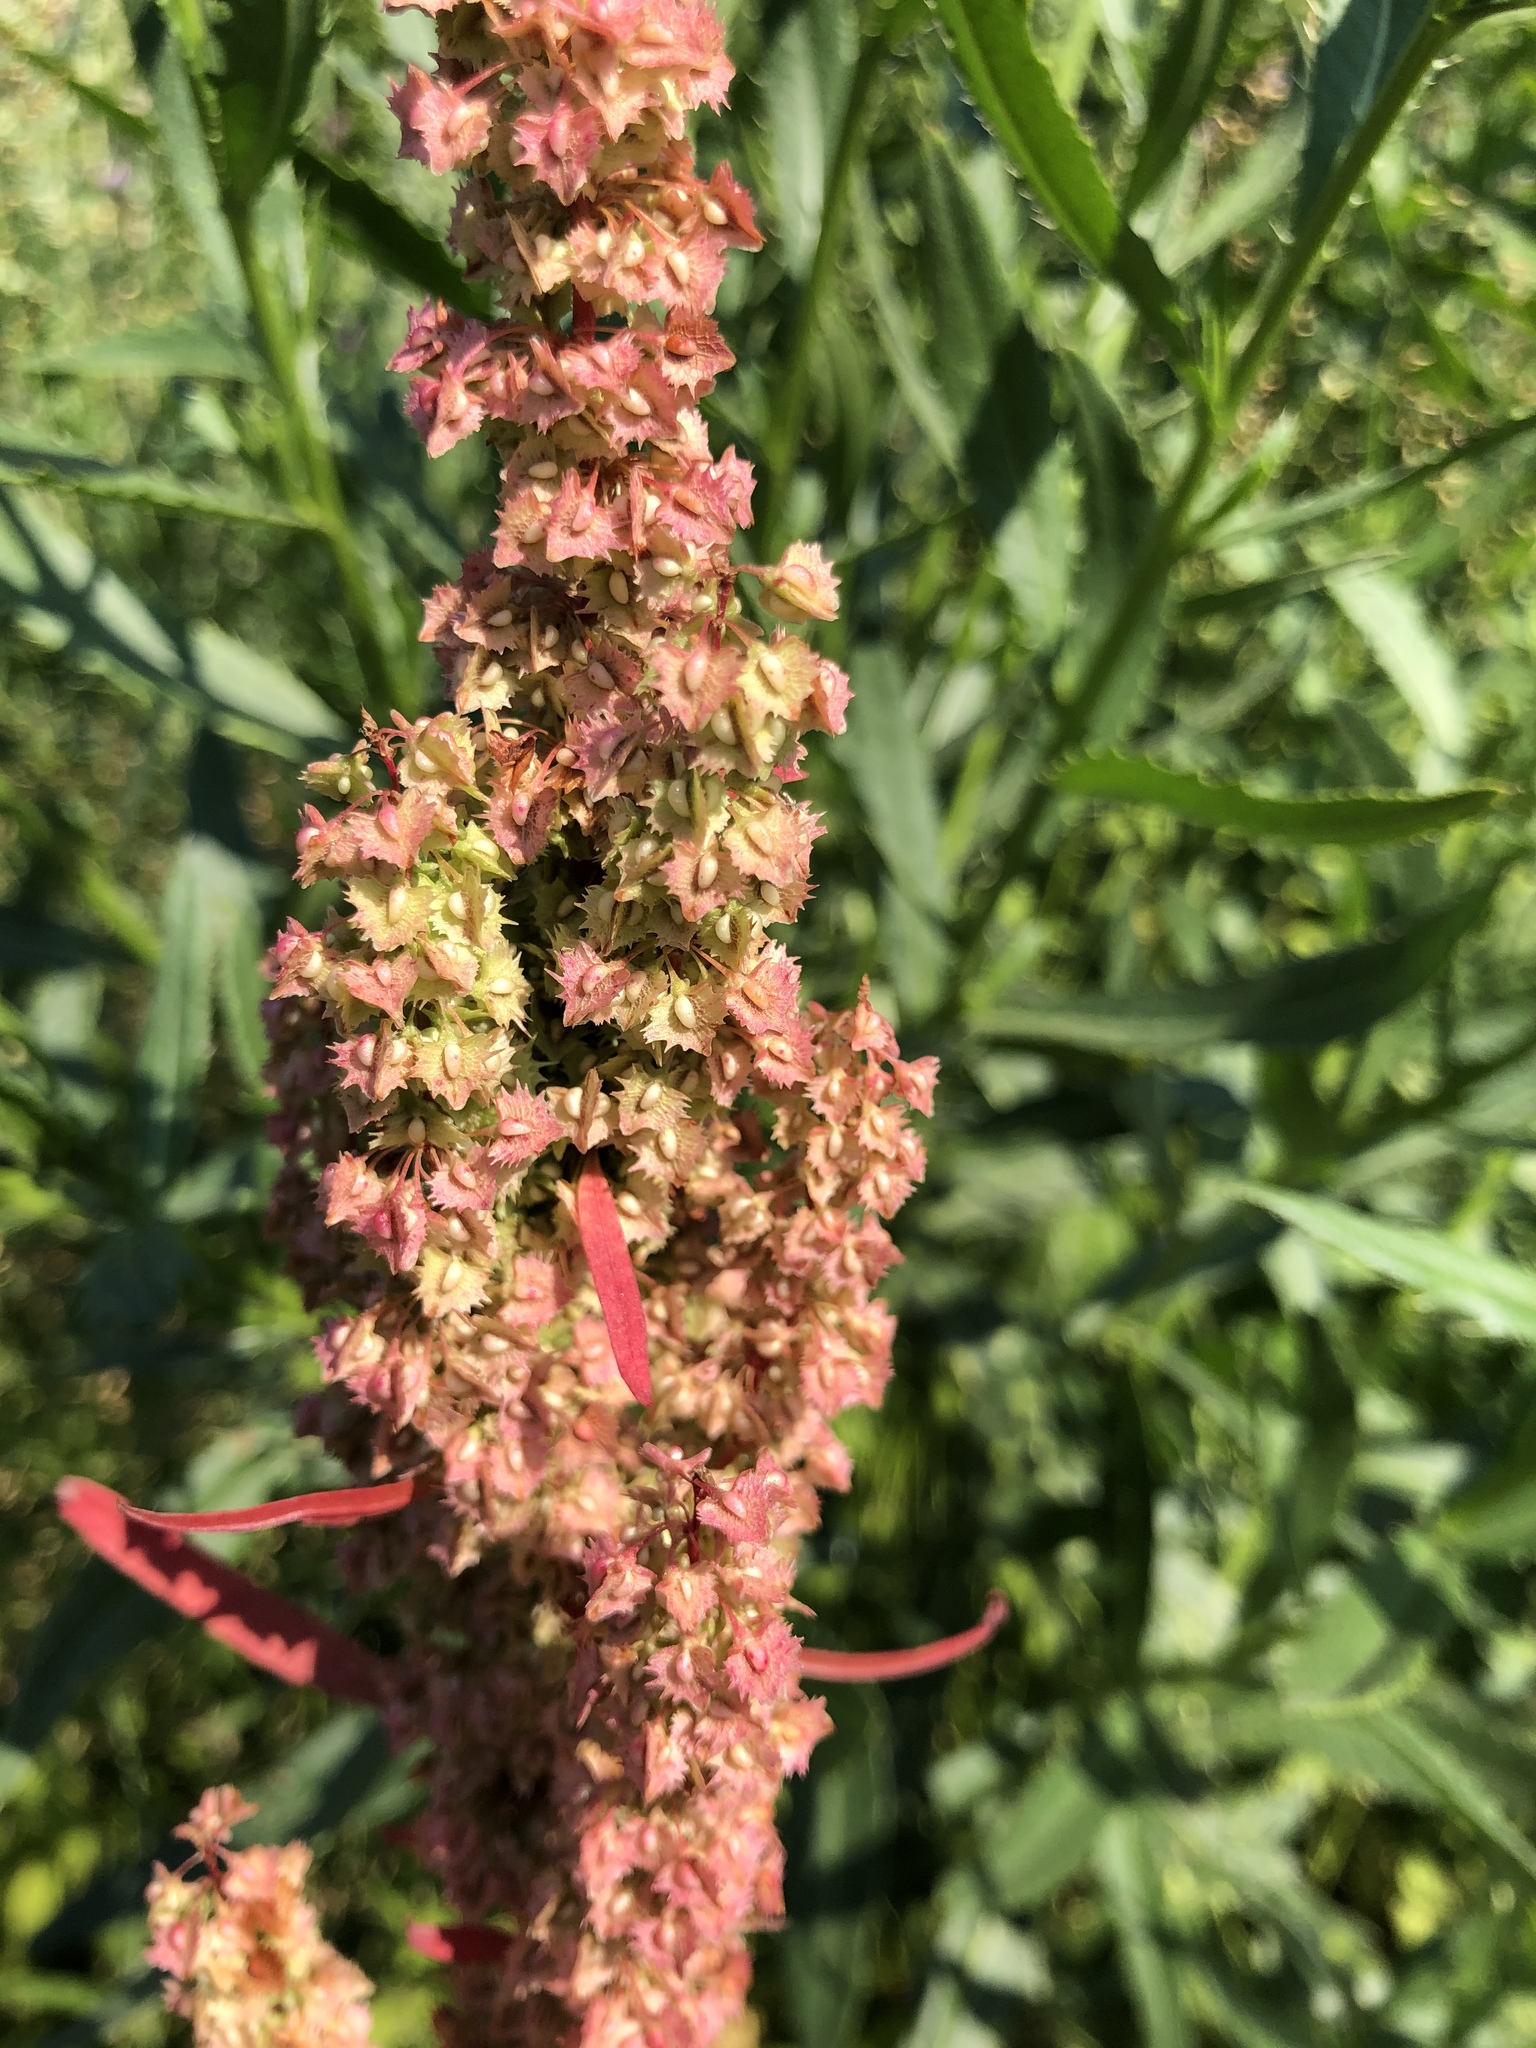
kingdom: Plantae
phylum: Tracheophyta
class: Magnoliopsida
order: Caryophyllales
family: Polygonaceae
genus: Rumex
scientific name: Rumex stenophyllus
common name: Narrowleaf dock
